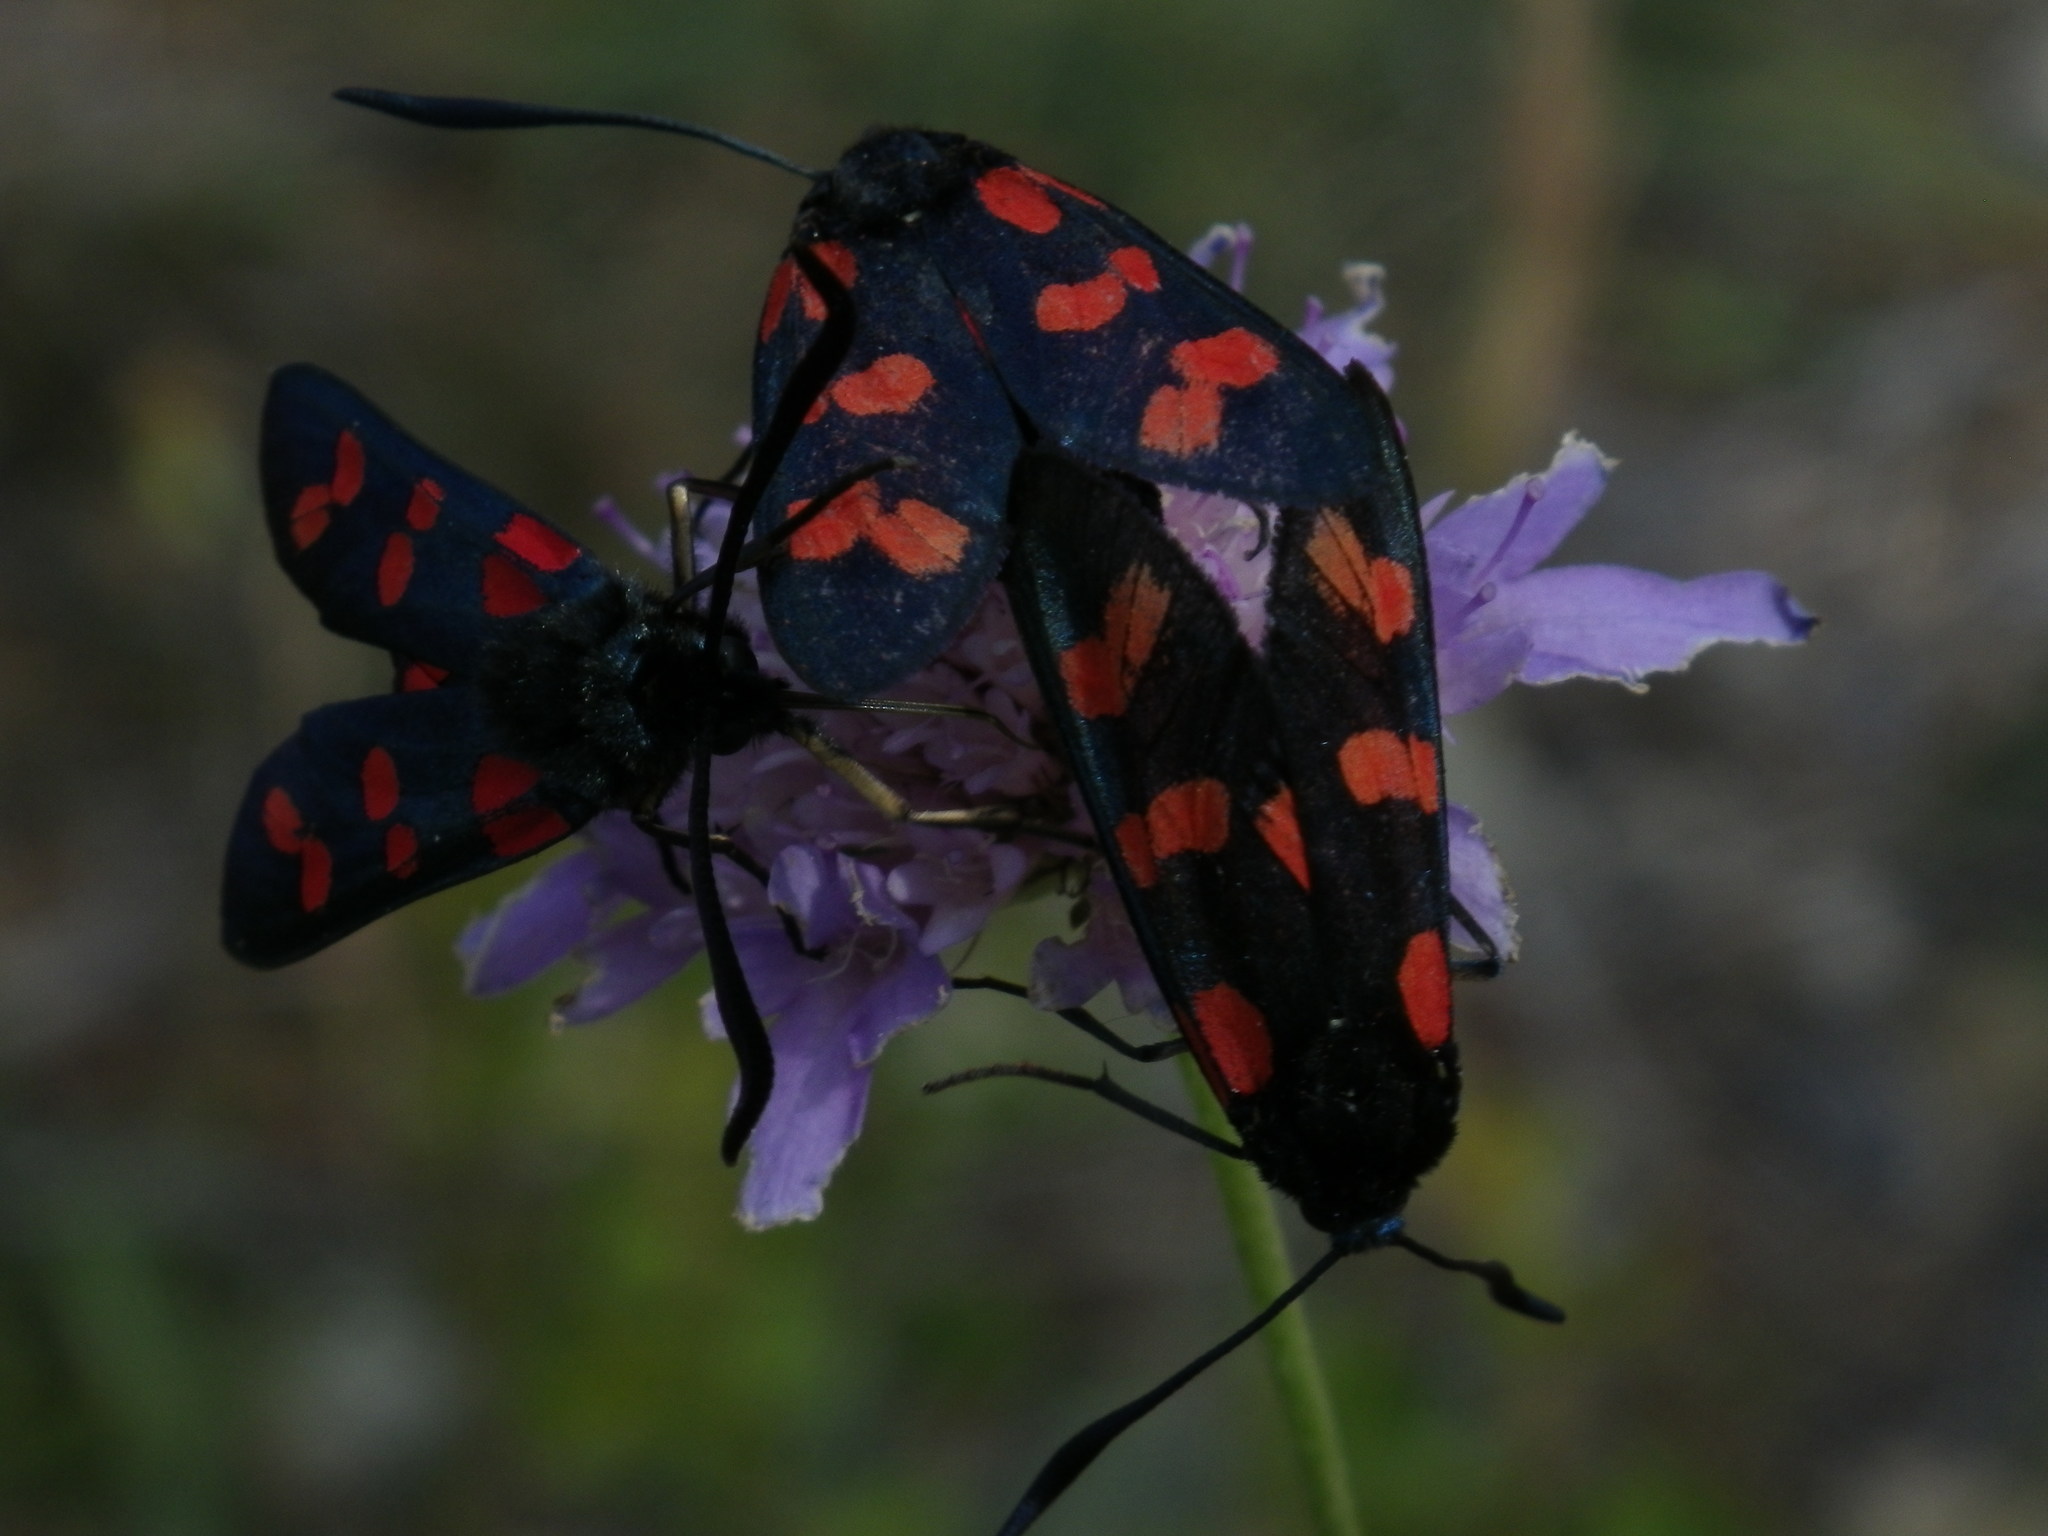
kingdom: Animalia
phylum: Arthropoda
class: Insecta
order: Lepidoptera
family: Zygaenidae
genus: Zygaena
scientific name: Zygaena filipendulae
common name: Six-spot burnet
